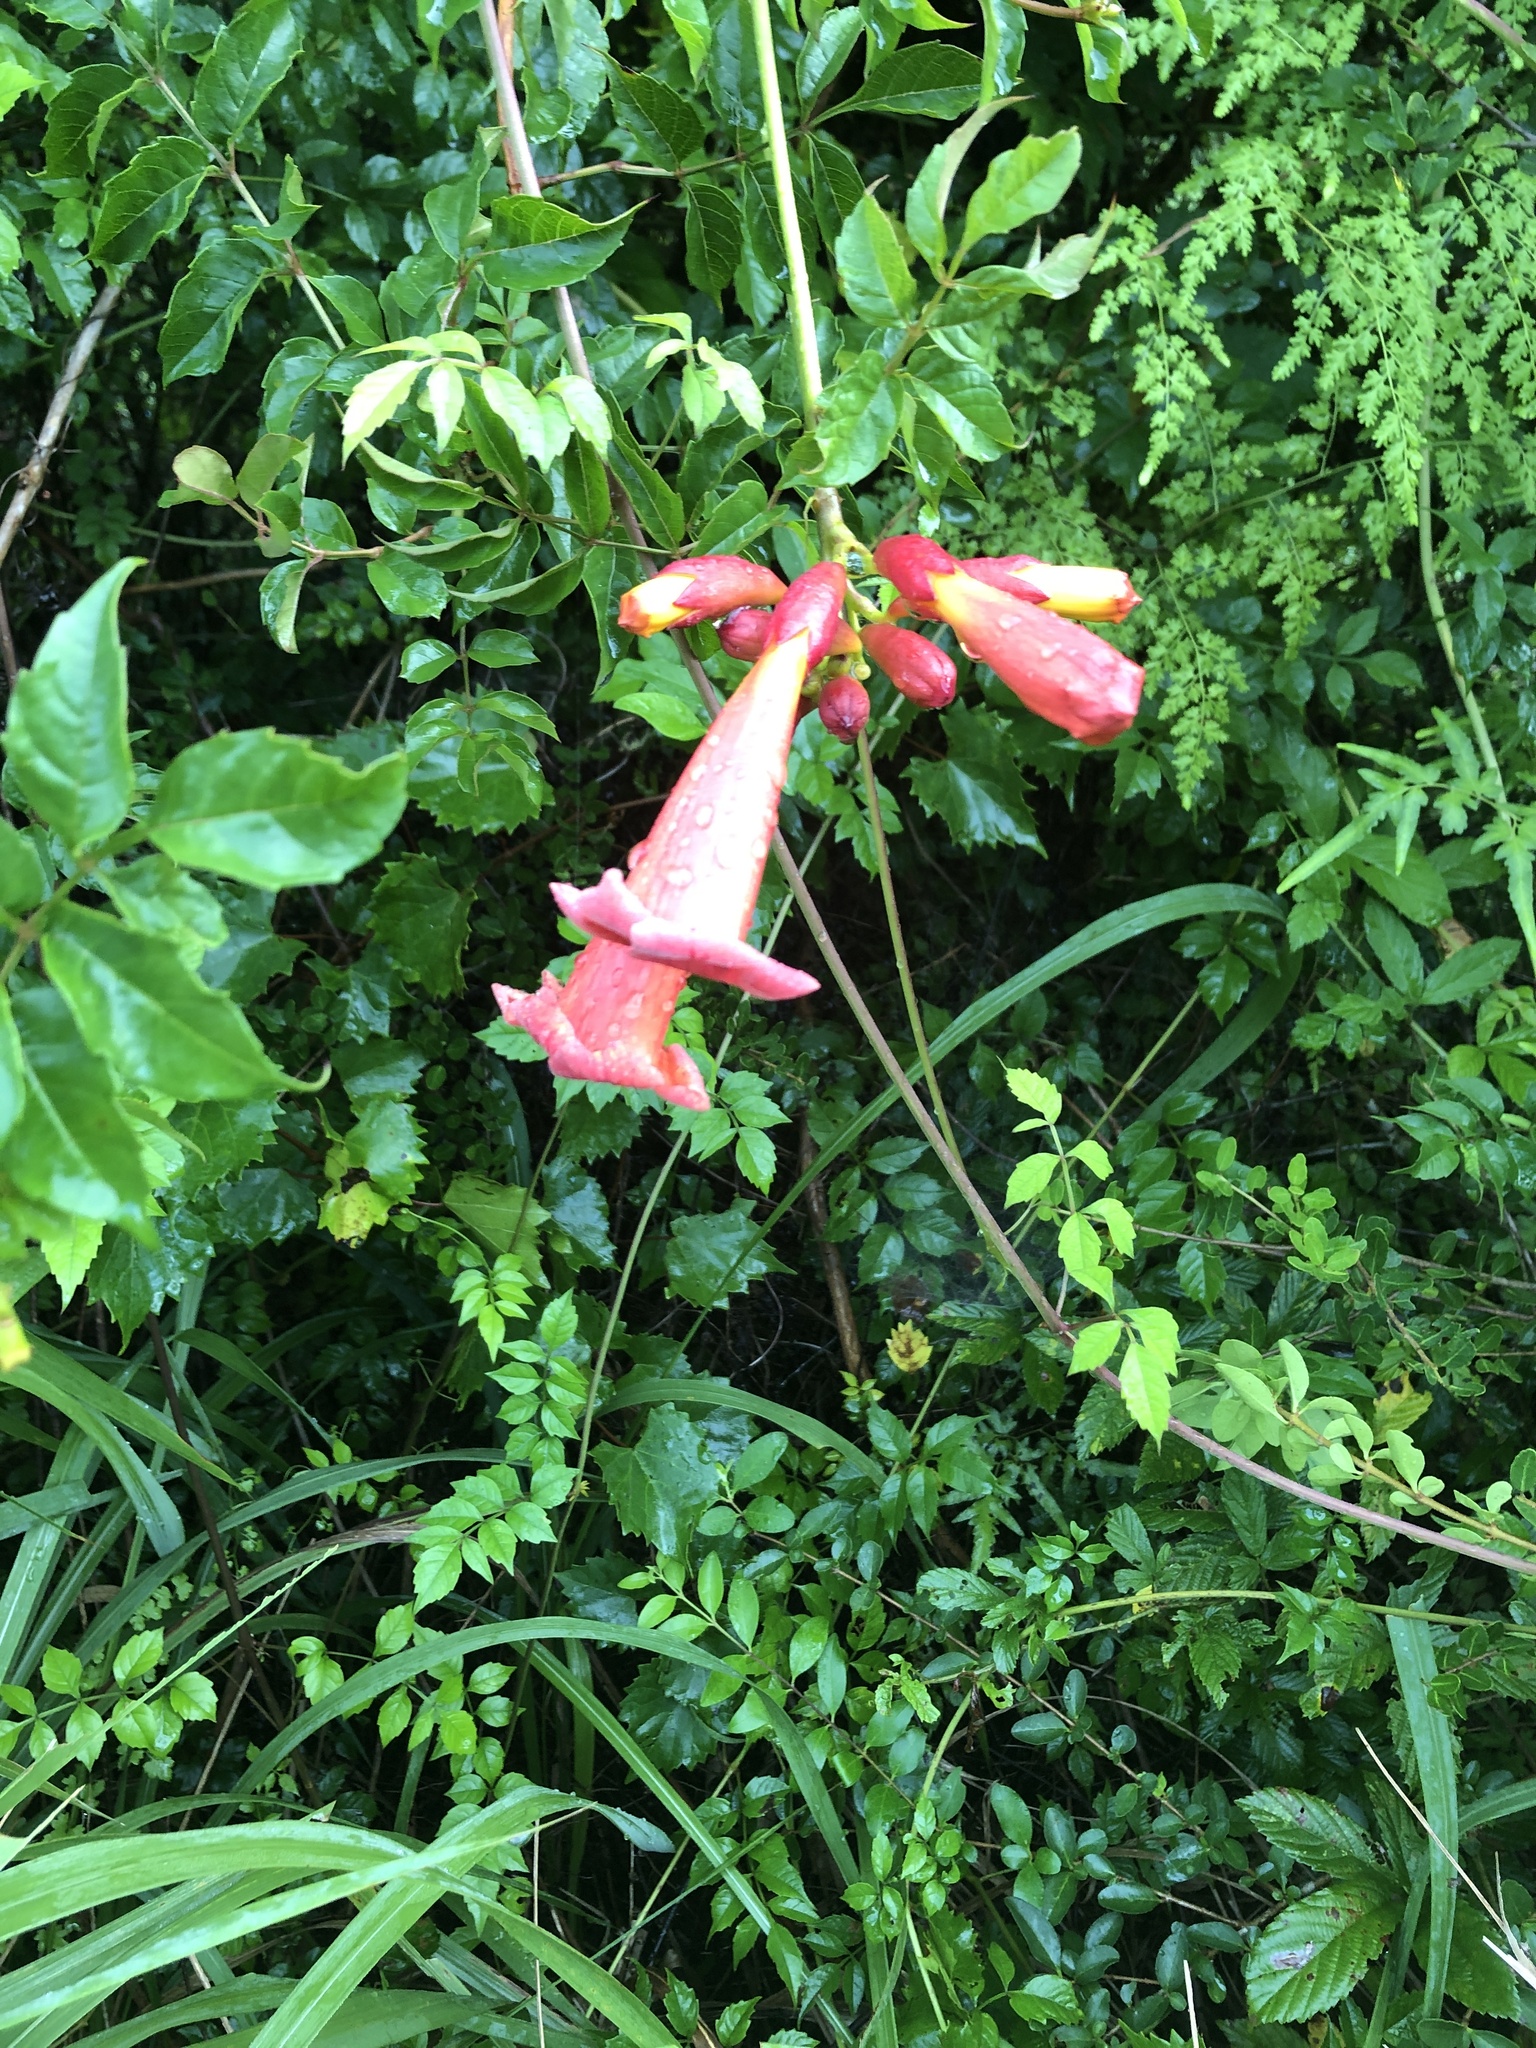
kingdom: Plantae
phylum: Tracheophyta
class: Magnoliopsida
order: Lamiales
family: Bignoniaceae
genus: Campsis
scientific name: Campsis radicans
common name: Trumpet-creeper
